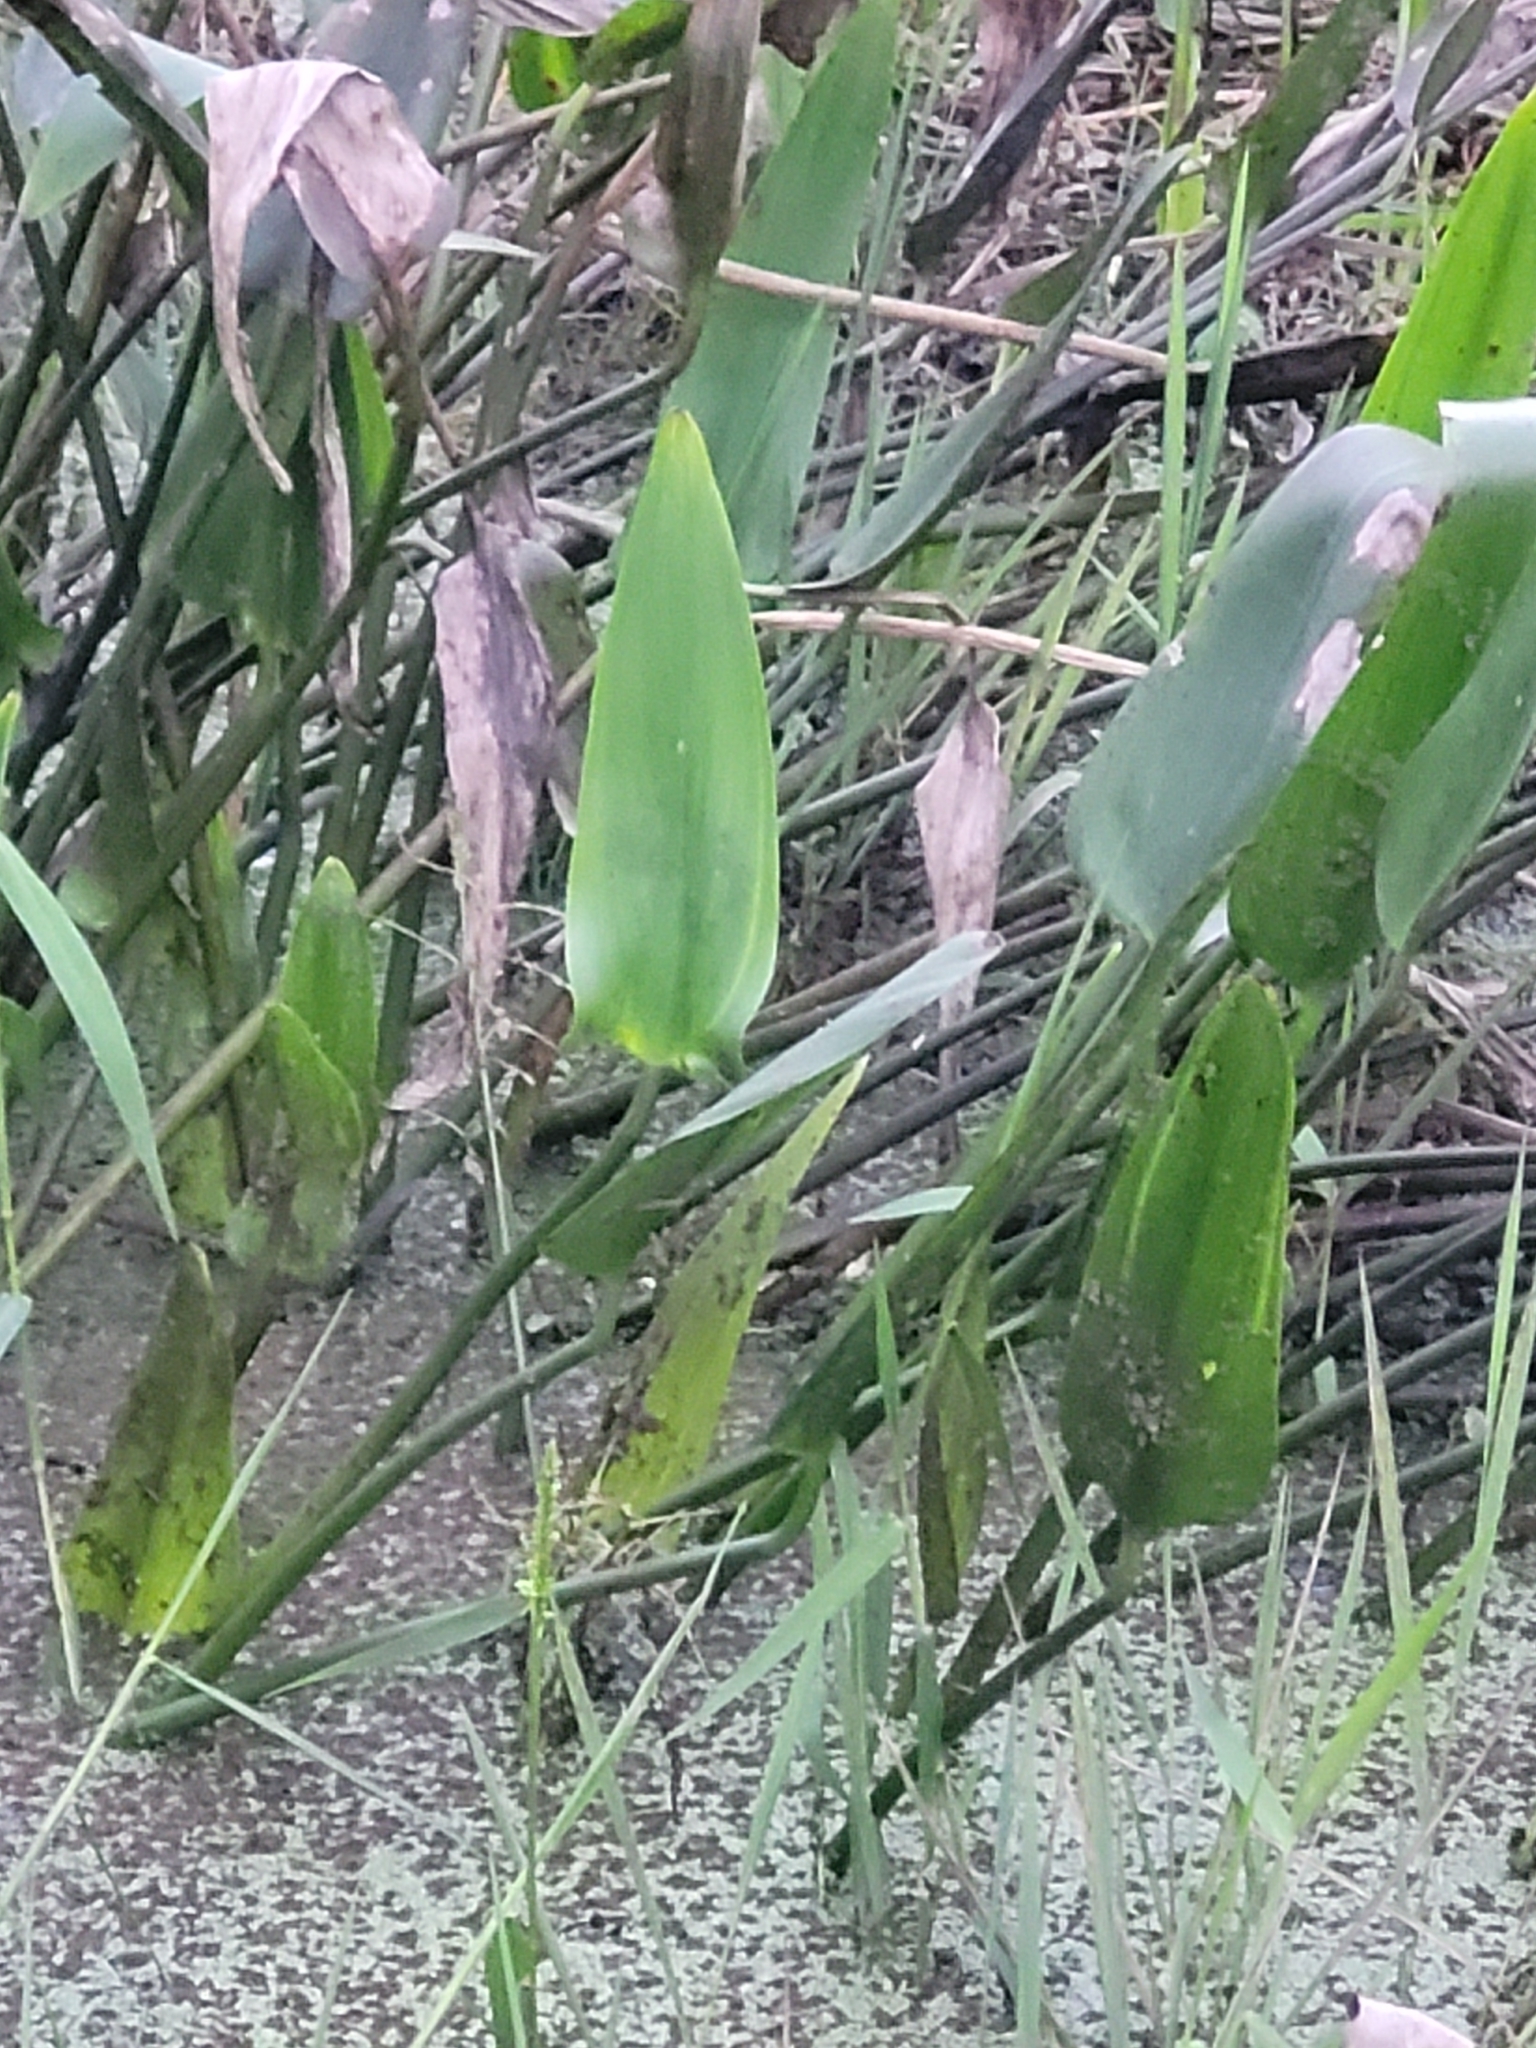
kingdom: Plantae
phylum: Tracheophyta
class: Liliopsida
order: Commelinales
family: Pontederiaceae
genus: Pontederia
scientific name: Pontederia cordata
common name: Pickerelweed
